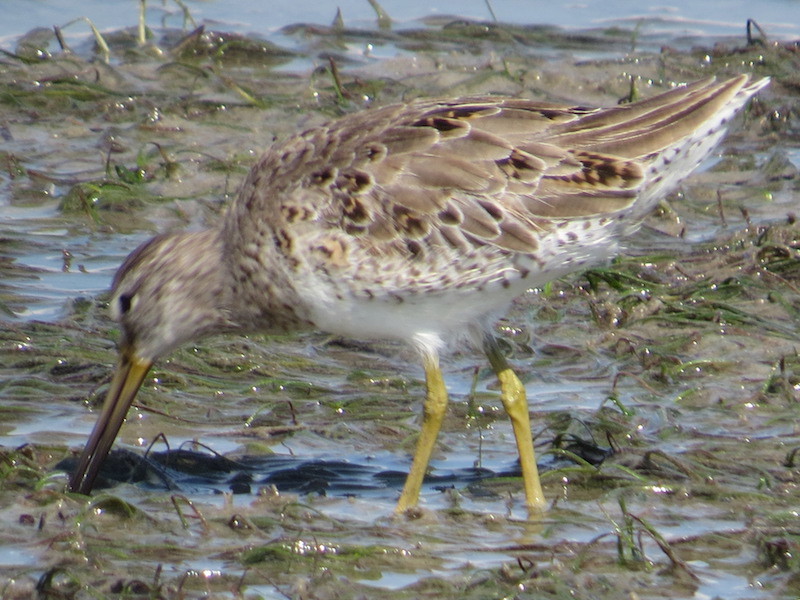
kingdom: Animalia
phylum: Chordata
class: Aves
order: Charadriiformes
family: Scolopacidae
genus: Limnodromus
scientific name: Limnodromus griseus
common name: Short-billed dowitcher
